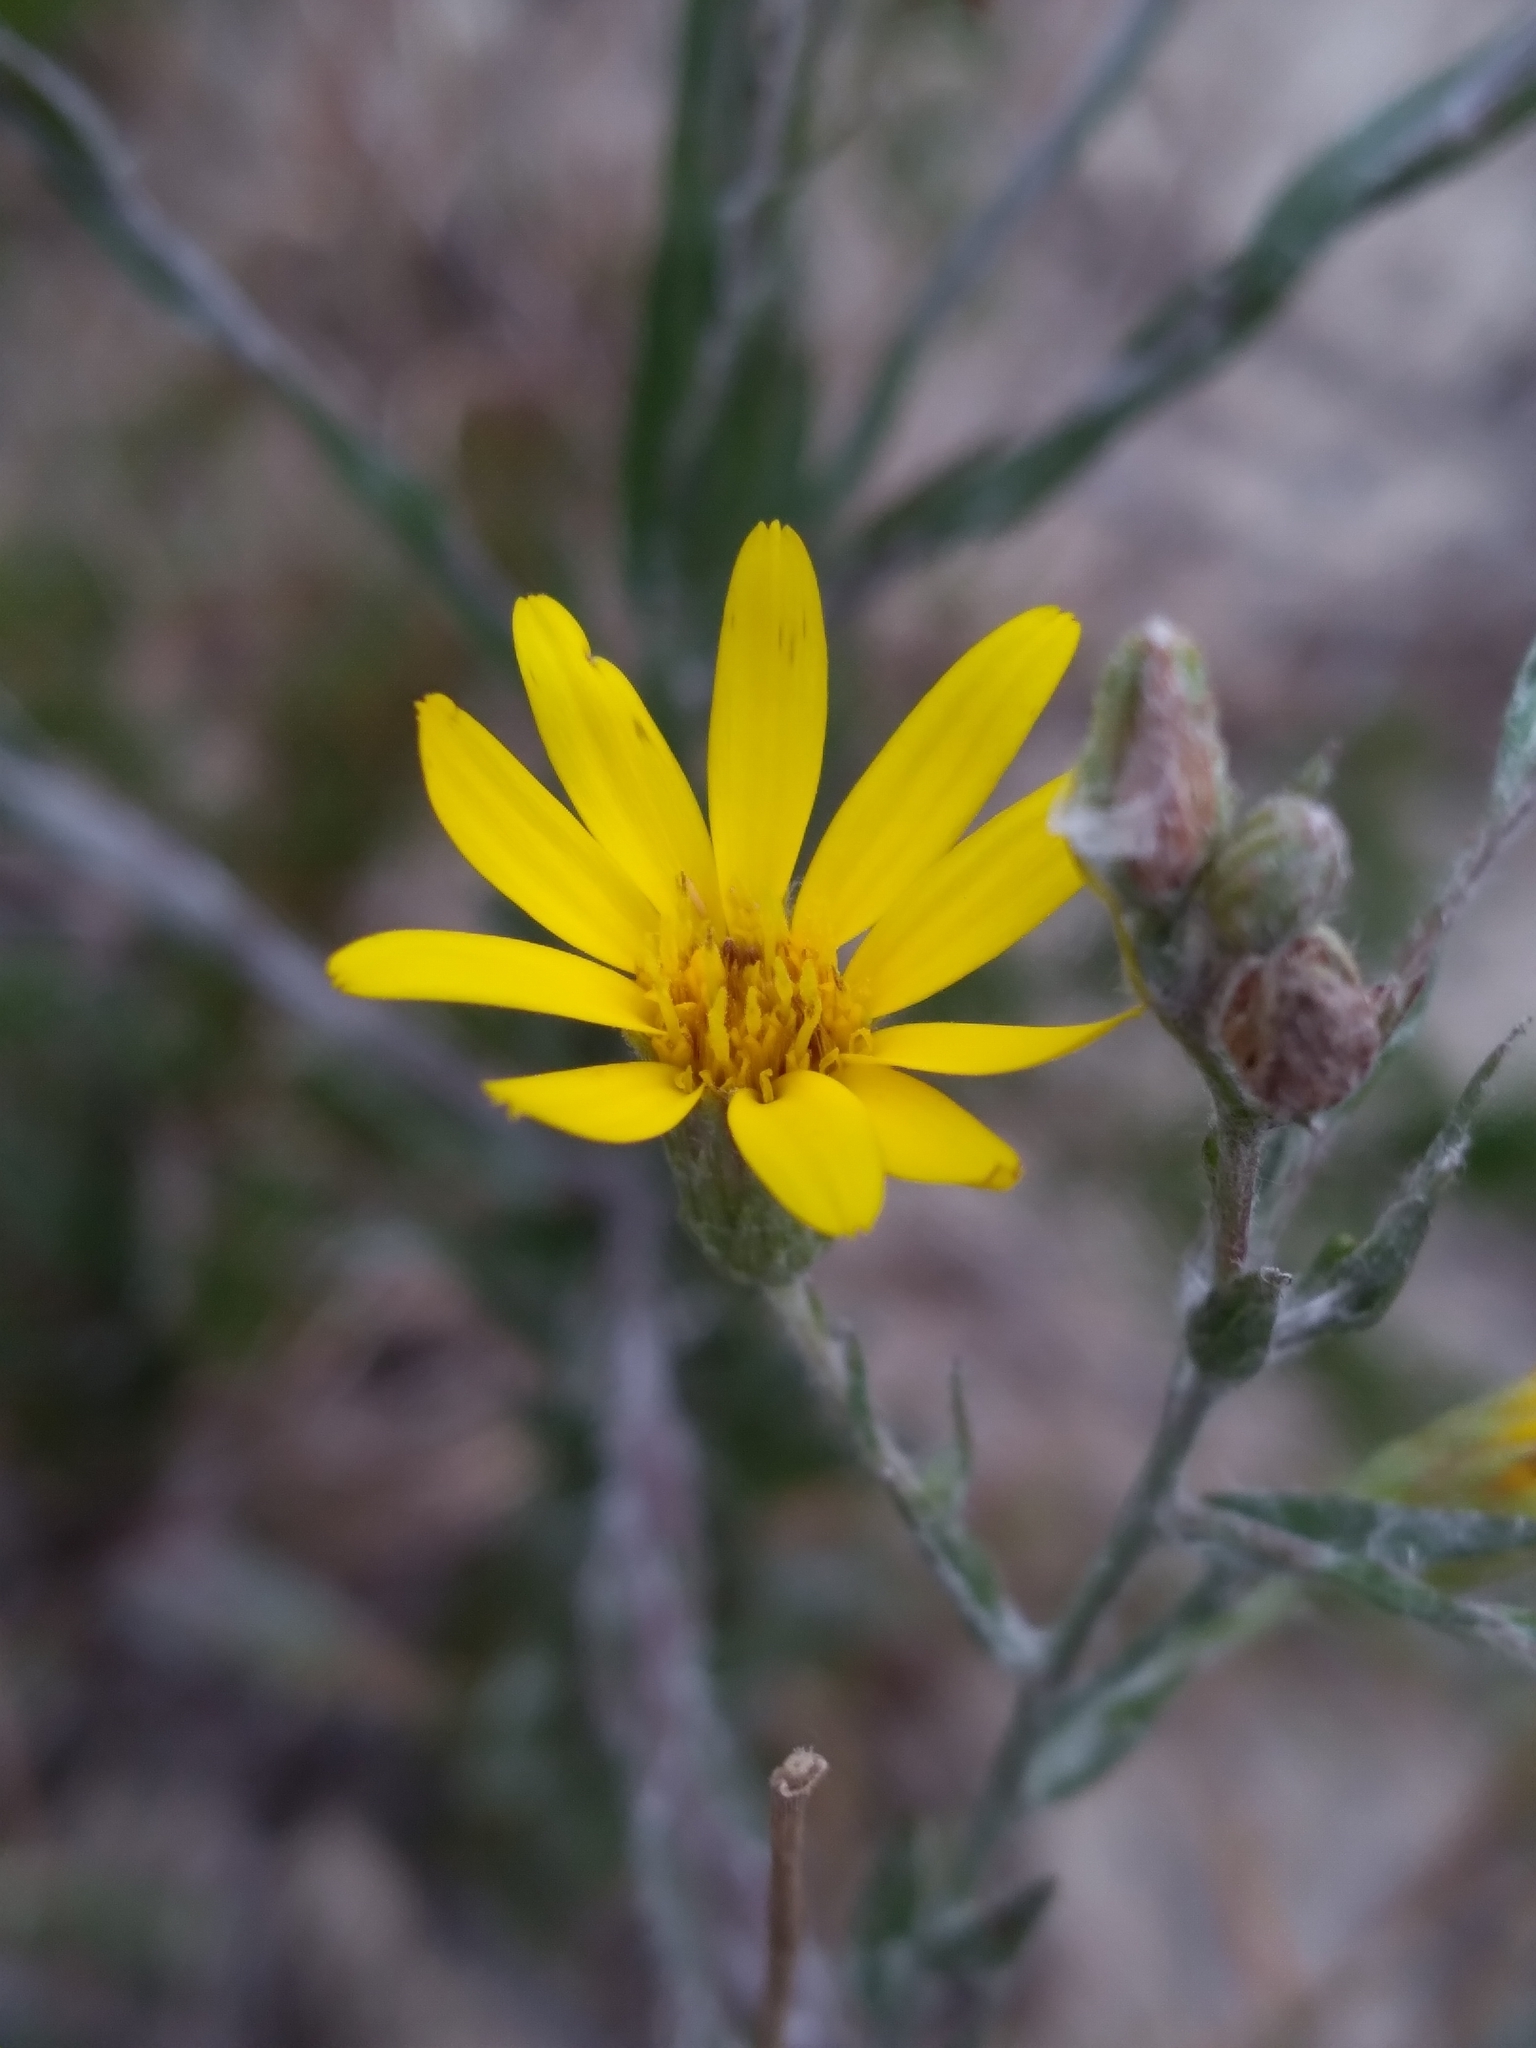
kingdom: Plantae
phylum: Tracheophyta
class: Magnoliopsida
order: Asterales
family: Asteraceae
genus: Pityopsis
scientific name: Pityopsis aequilifolia
